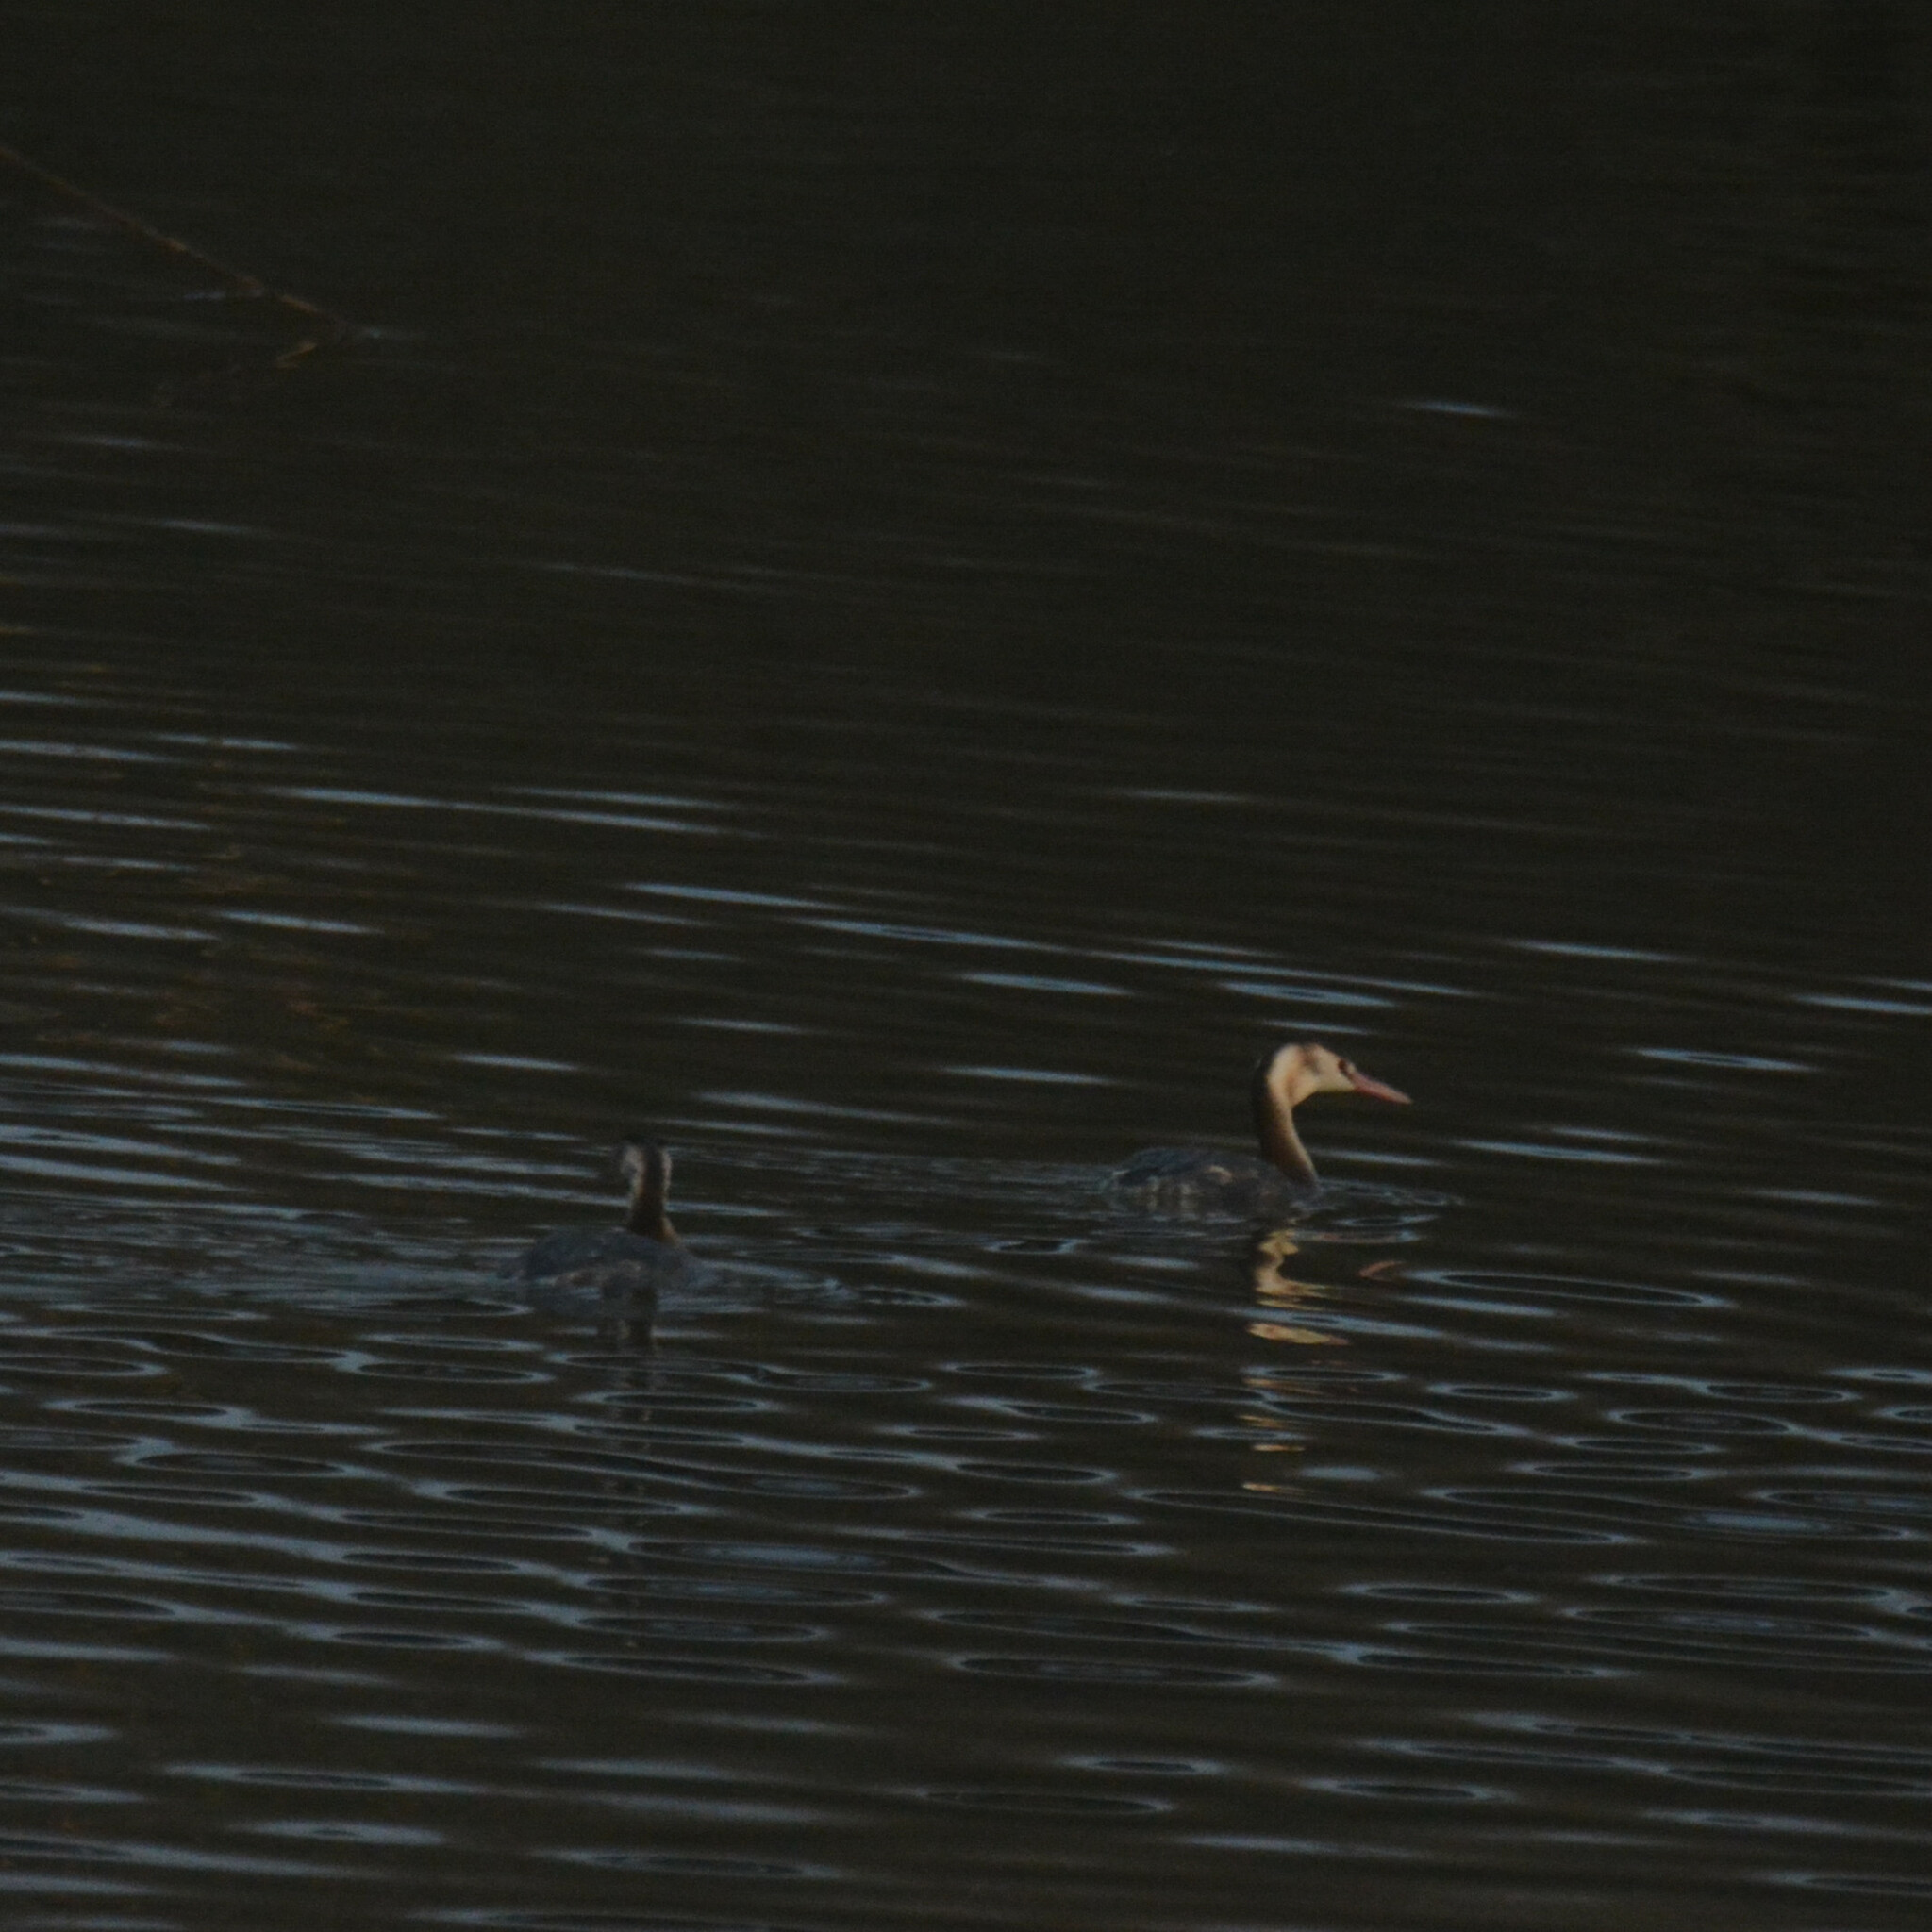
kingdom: Animalia
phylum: Chordata
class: Aves
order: Podicipediformes
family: Podicipedidae
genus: Podiceps
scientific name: Podiceps cristatus
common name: Great crested grebe
